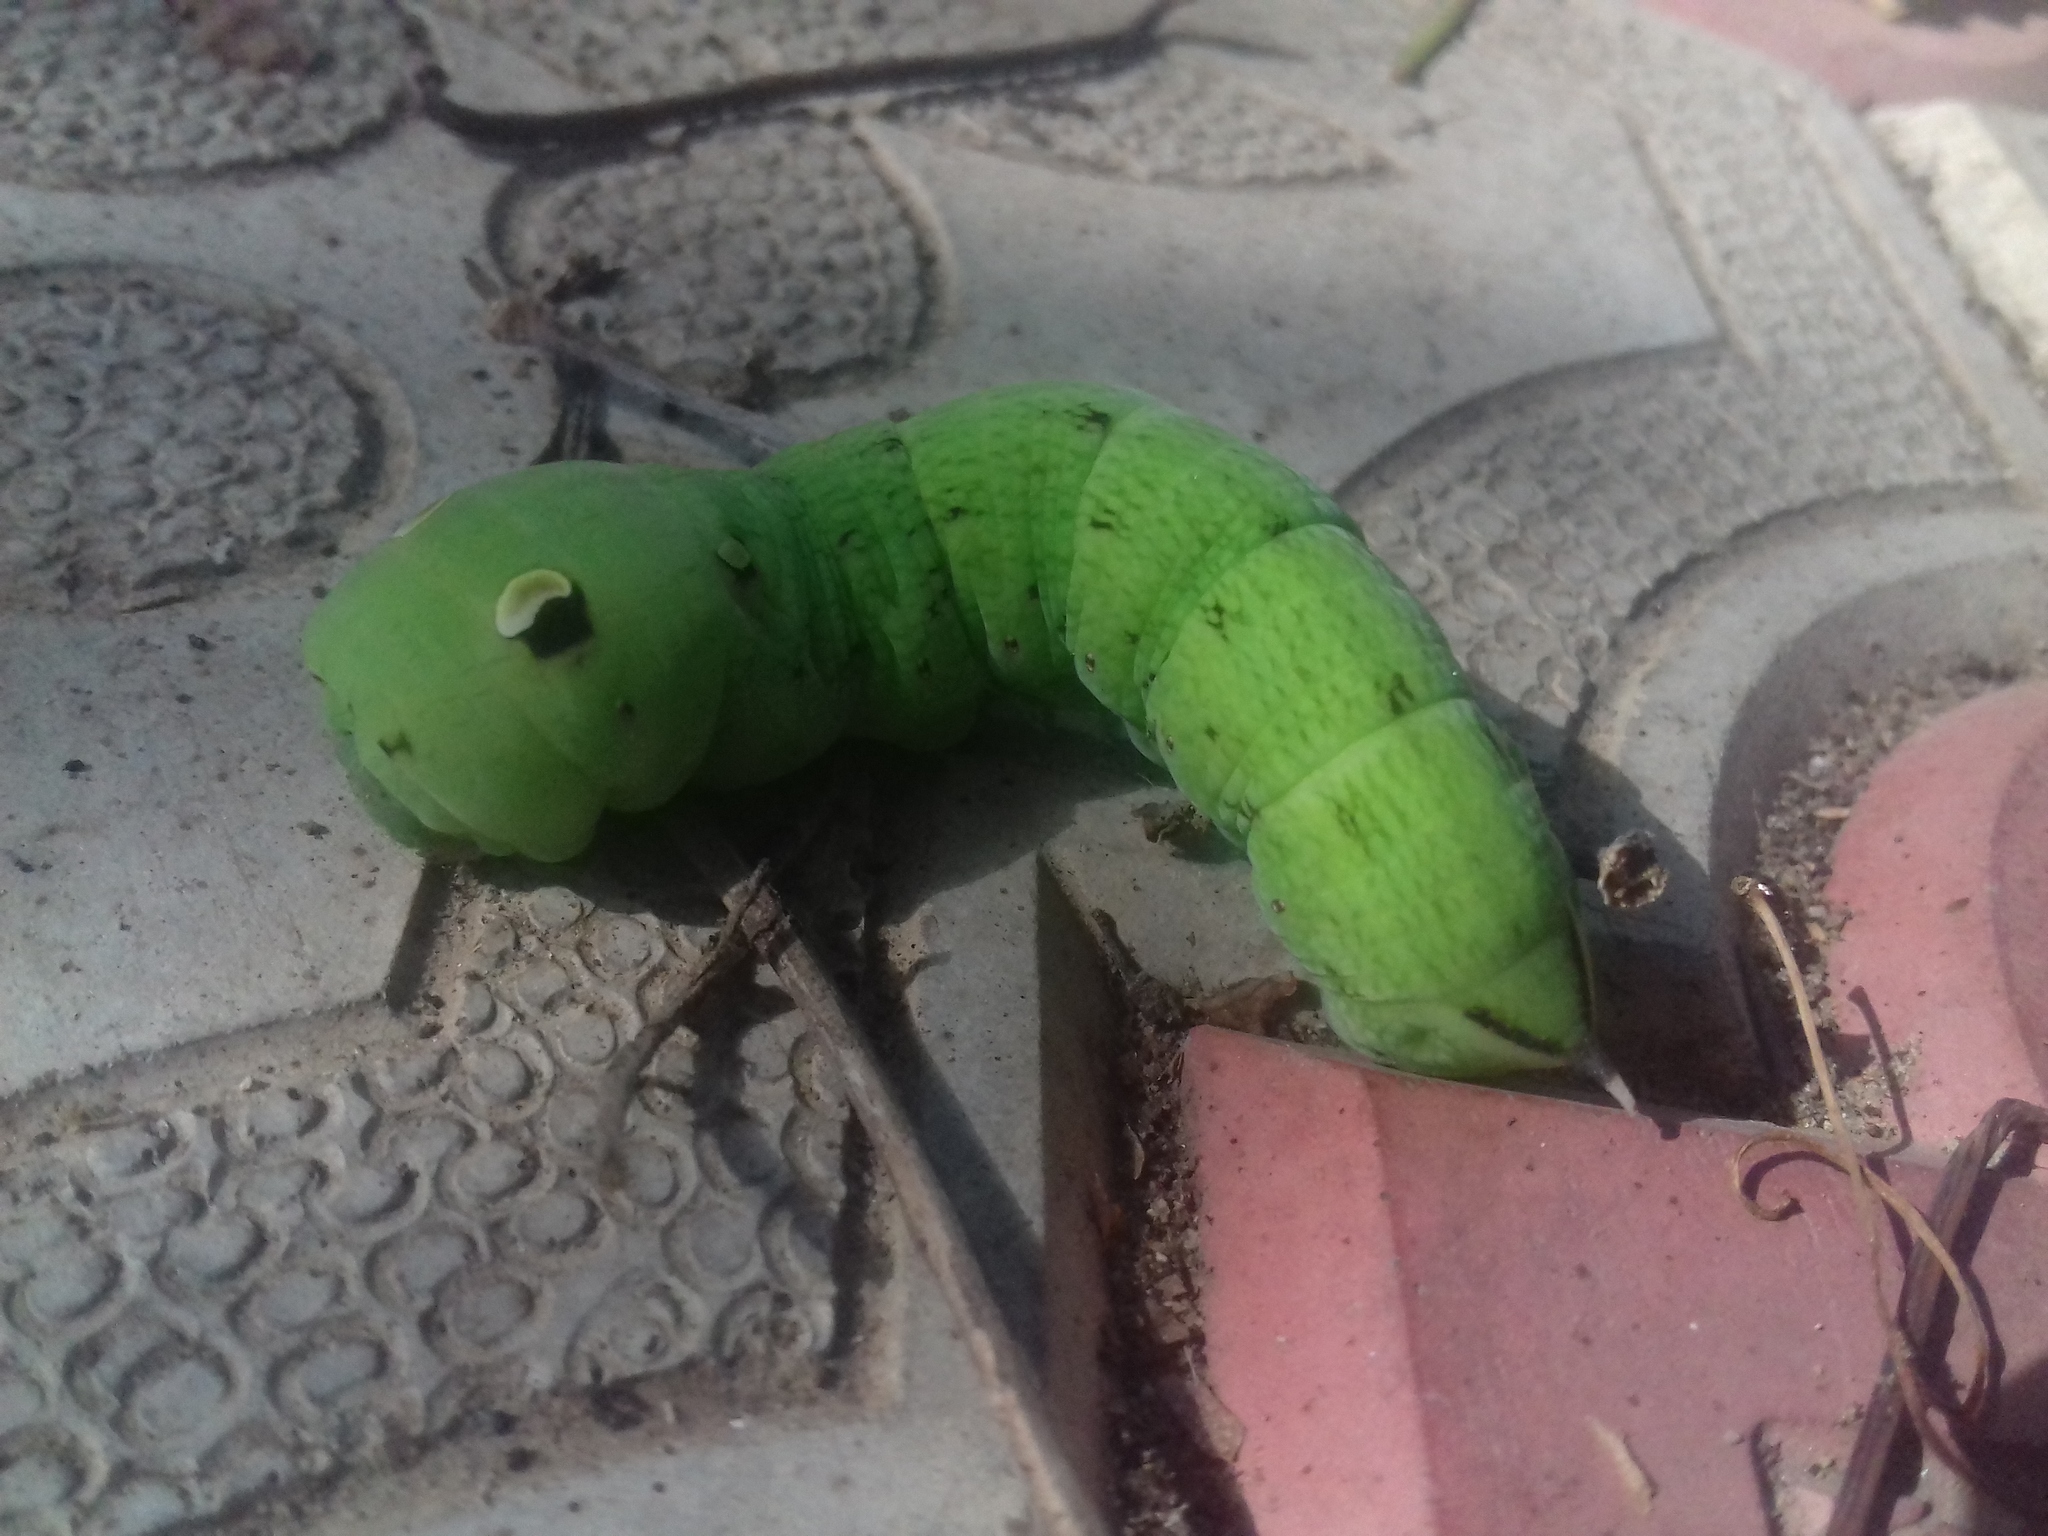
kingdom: Animalia
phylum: Arthropoda
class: Insecta
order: Lepidoptera
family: Sphingidae
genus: Deilephila
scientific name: Deilephila elpenor
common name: Elephant hawk-moth
